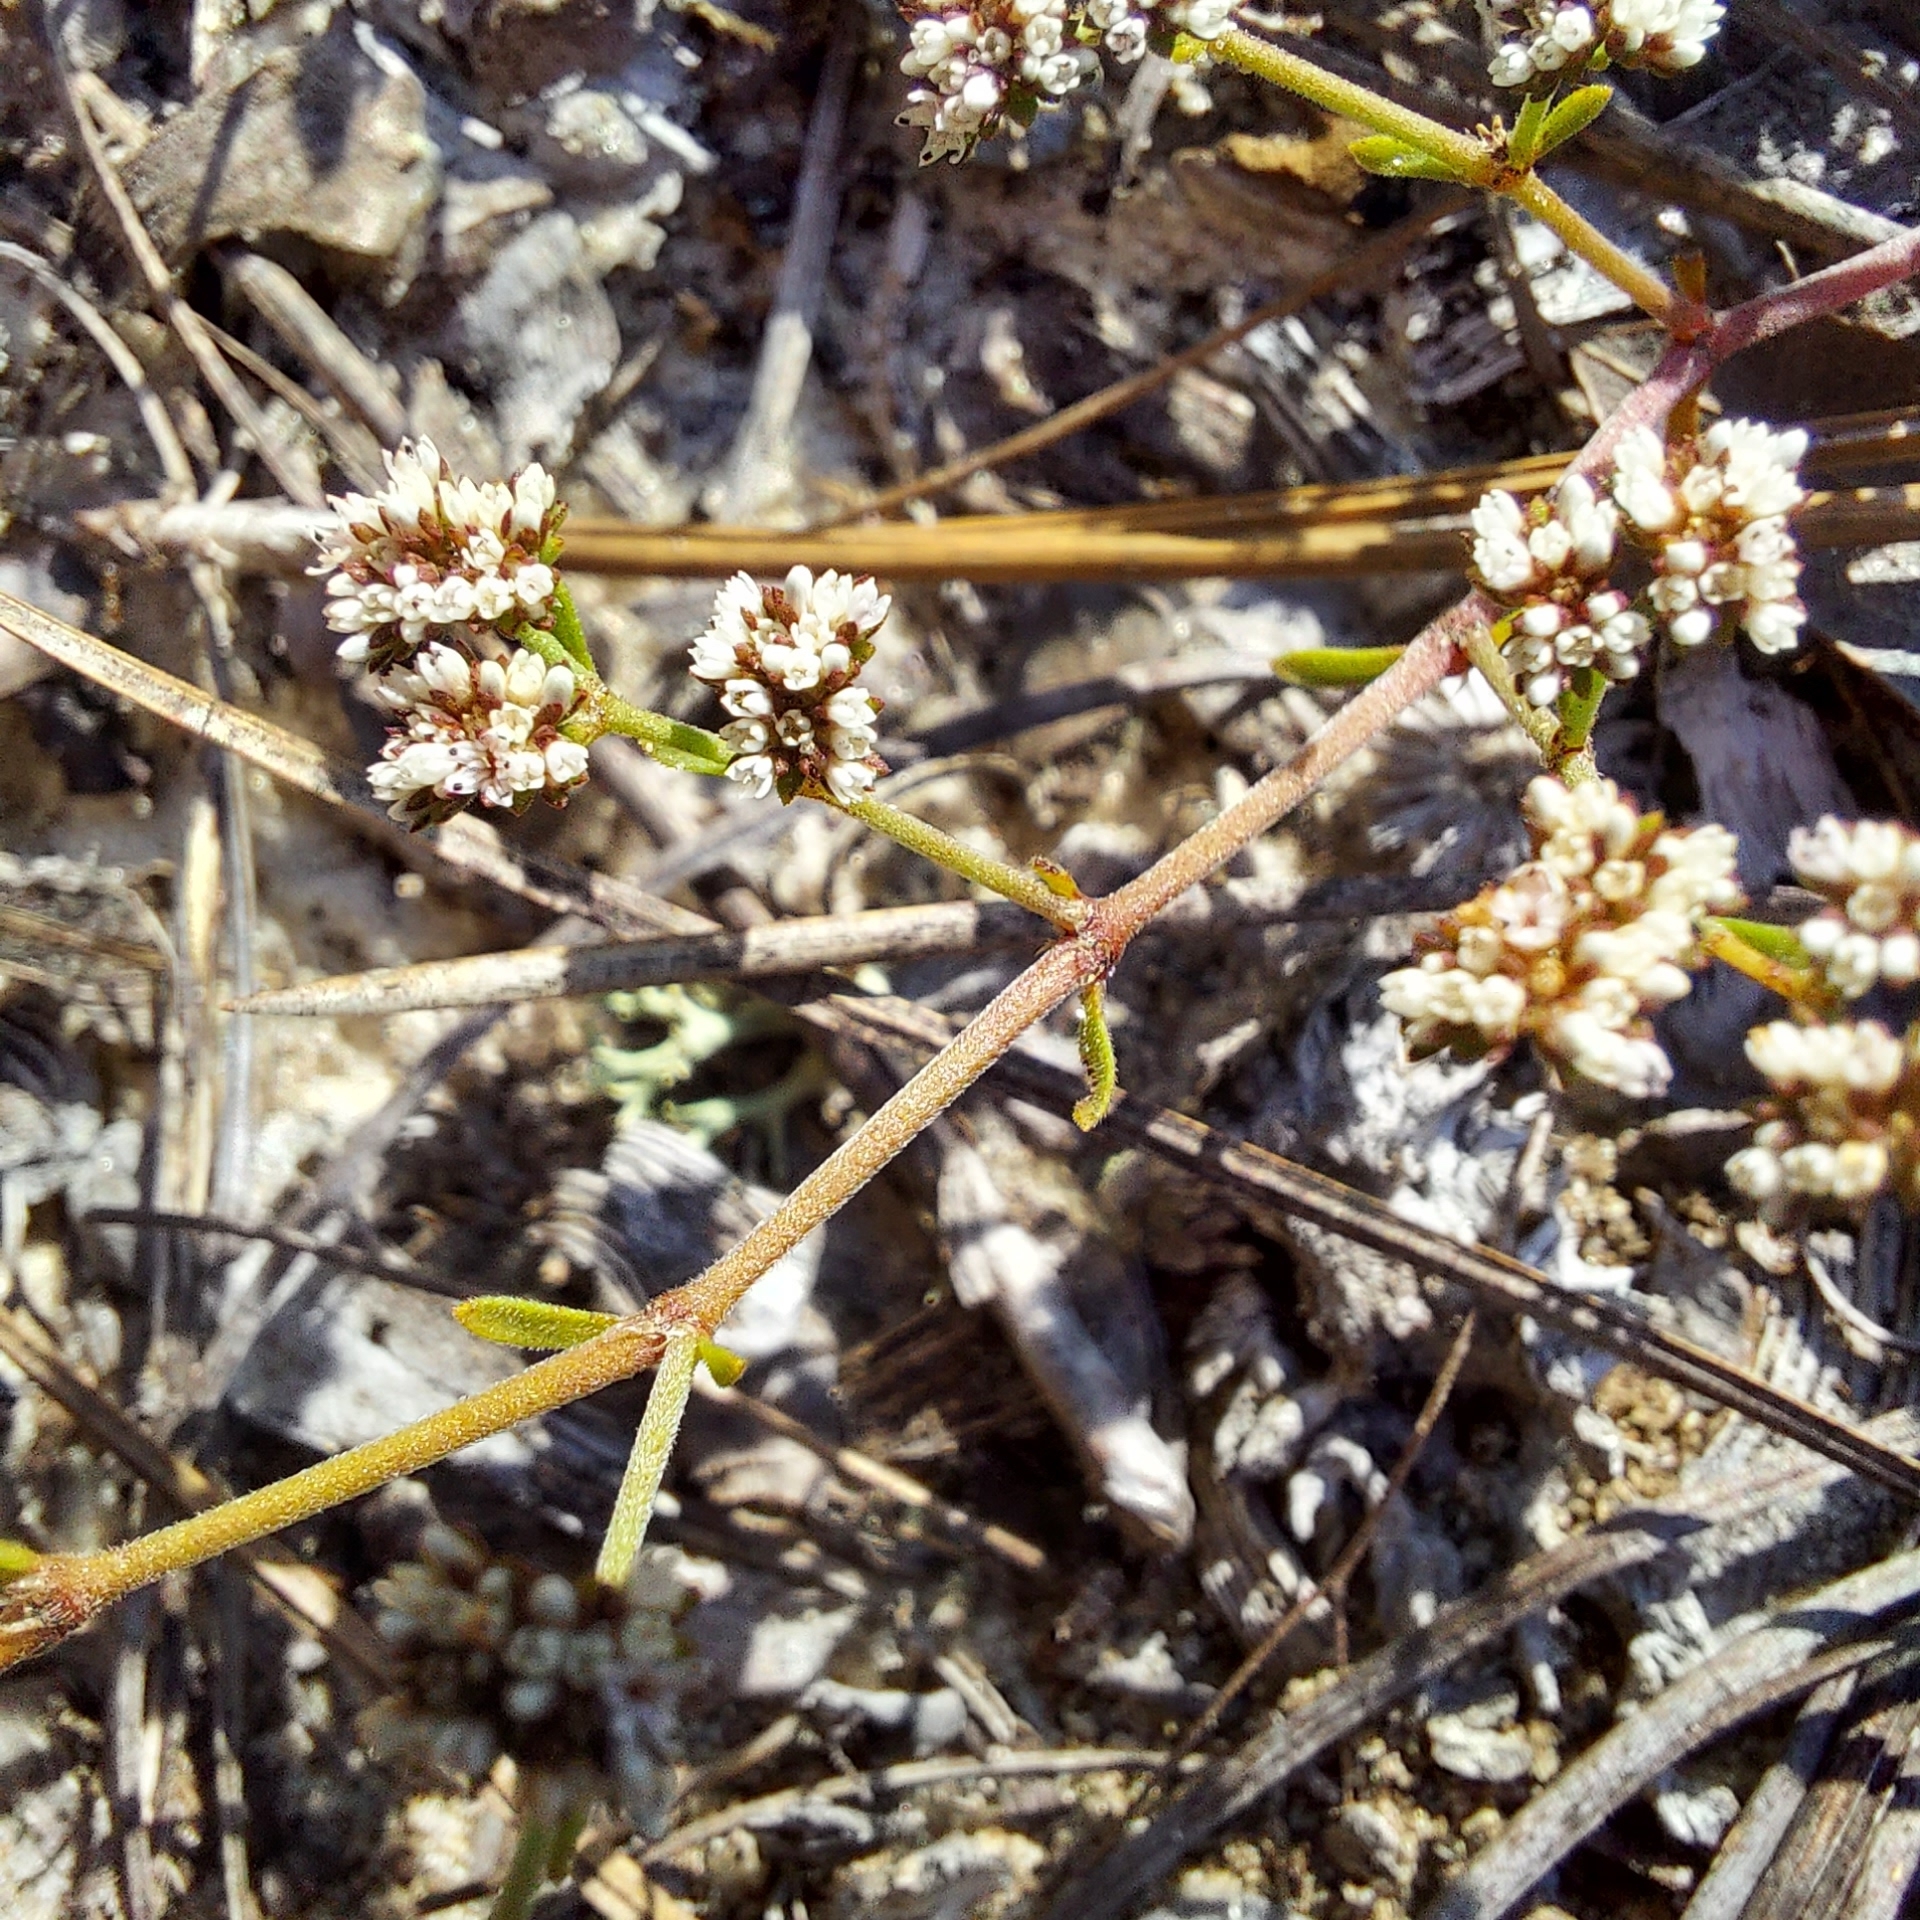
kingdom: Plantae
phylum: Tracheophyta
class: Magnoliopsida
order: Caryophyllales
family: Caryophyllaceae
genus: Paronychia
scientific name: Paronychia patula
